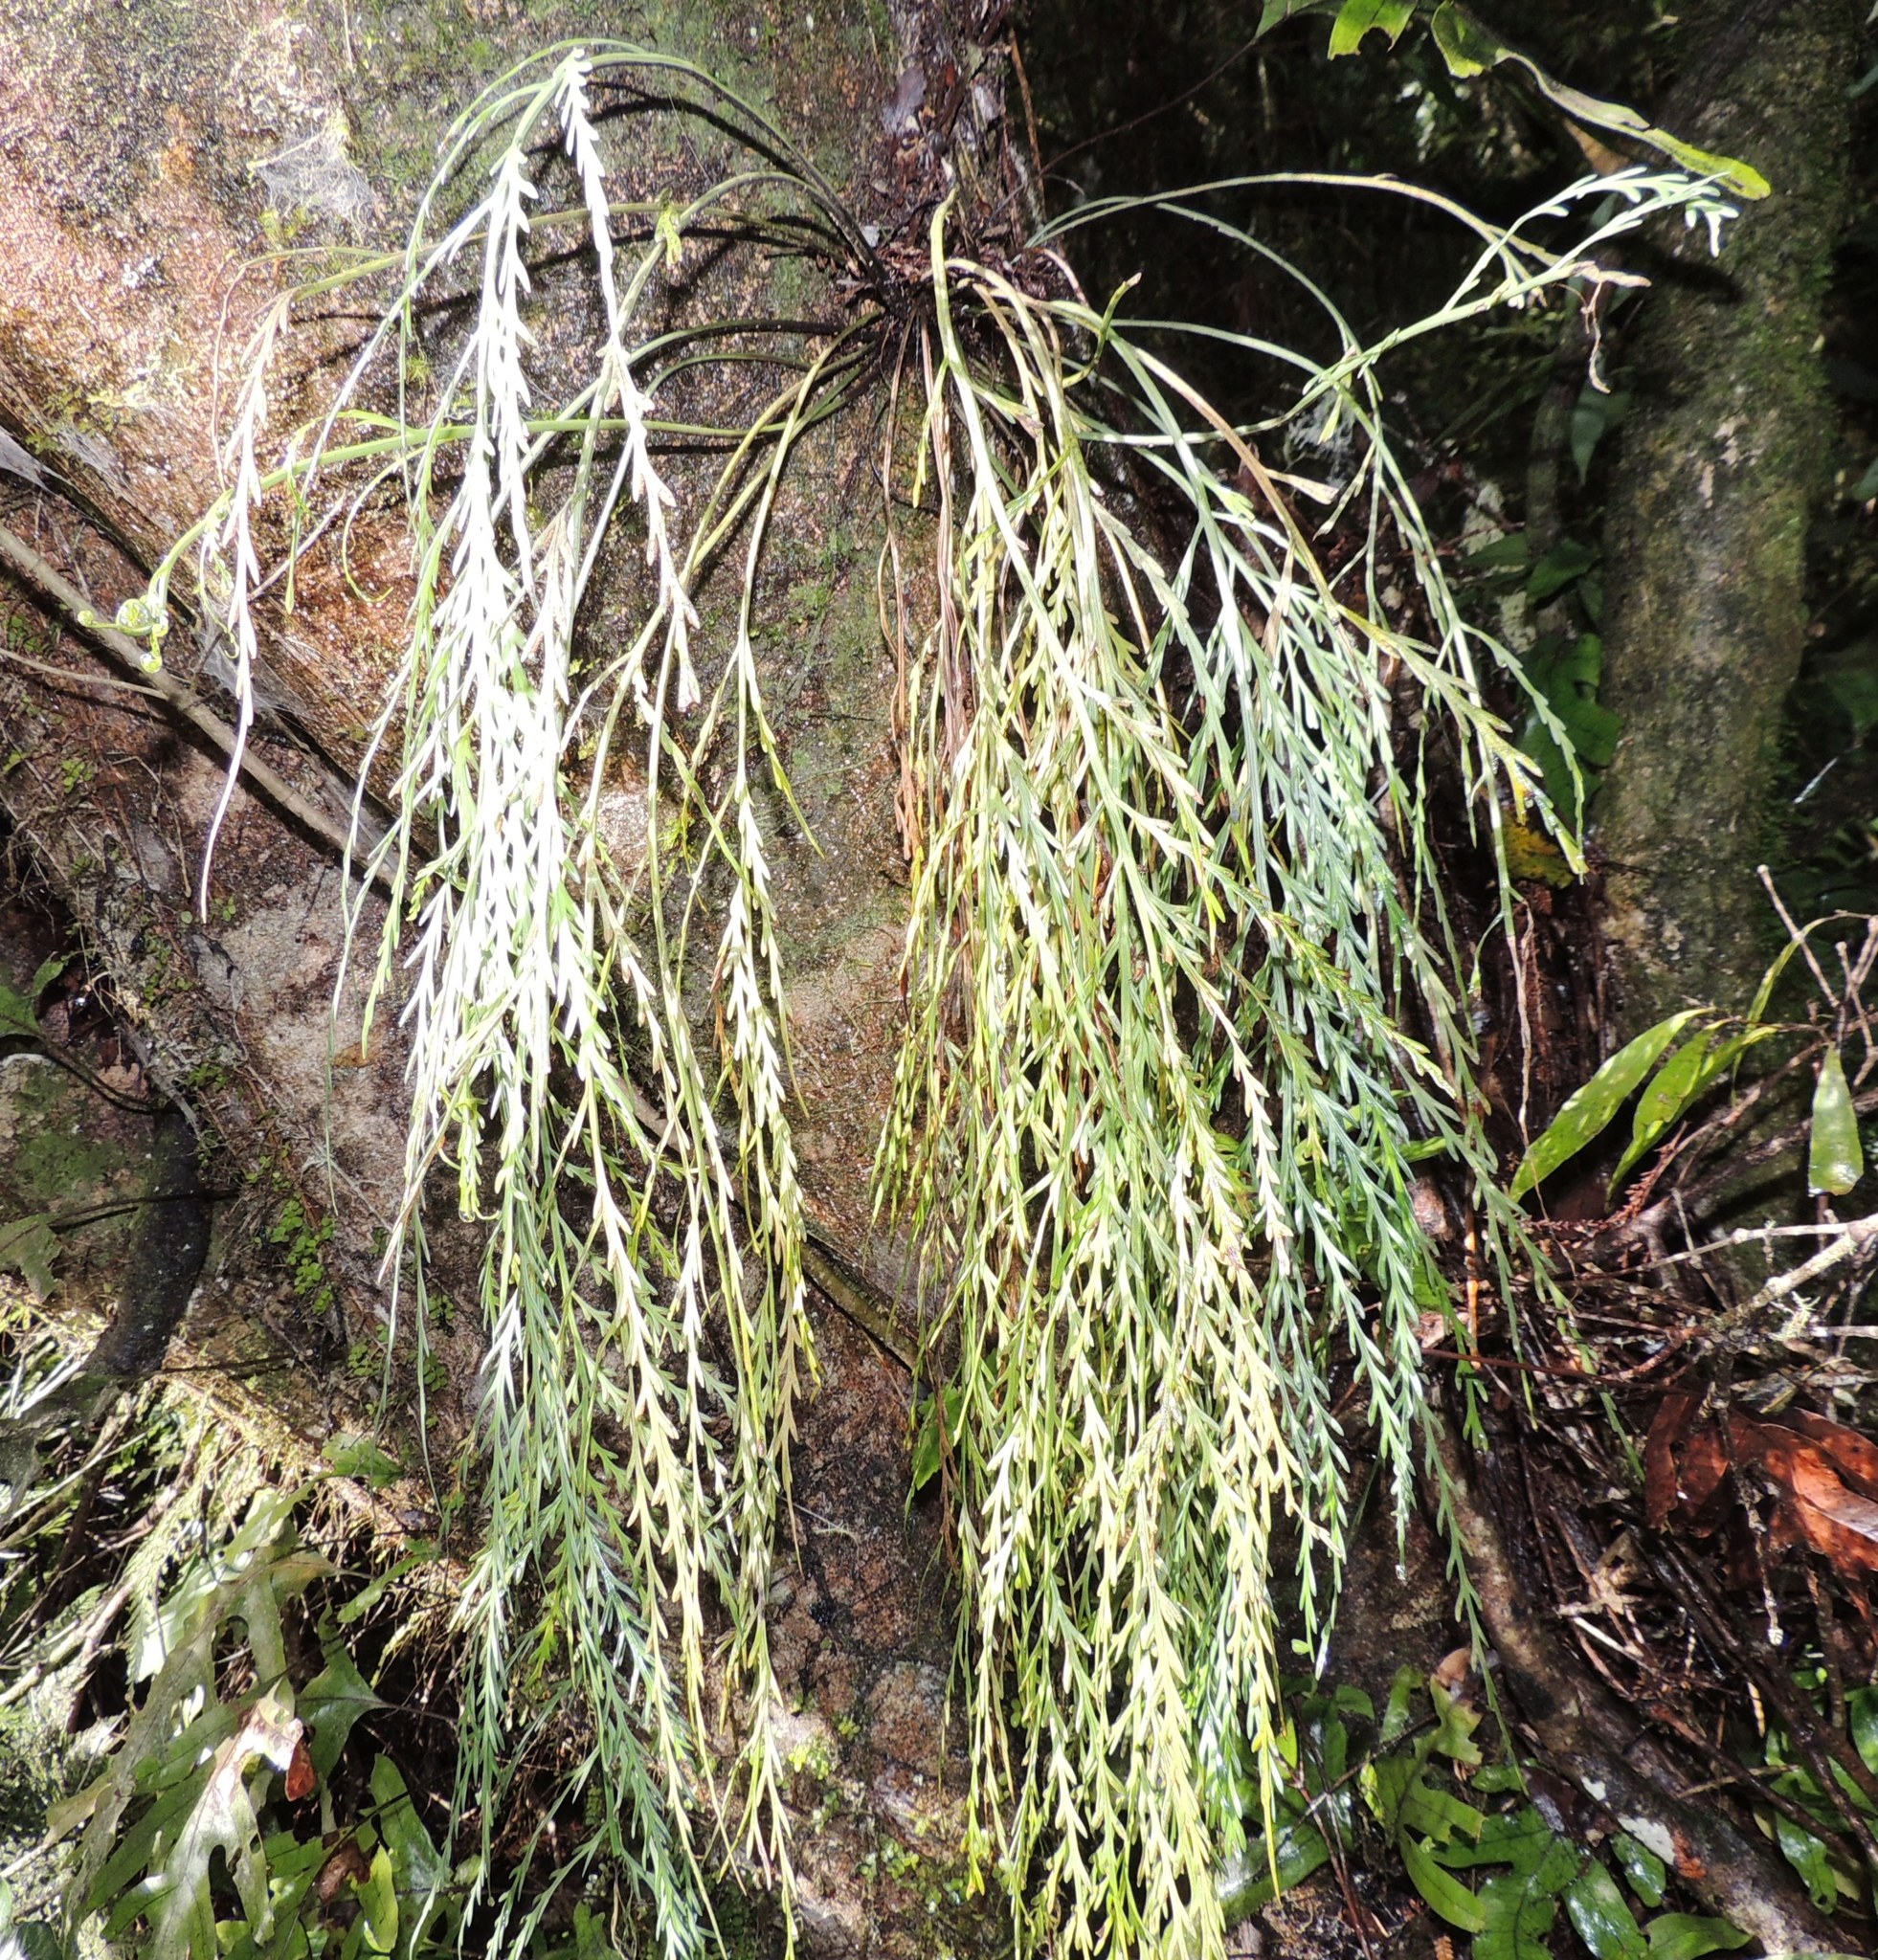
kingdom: Plantae
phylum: Tracheophyta
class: Polypodiopsida
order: Polypodiales
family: Aspleniaceae
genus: Asplenium
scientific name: Asplenium flaccidum
